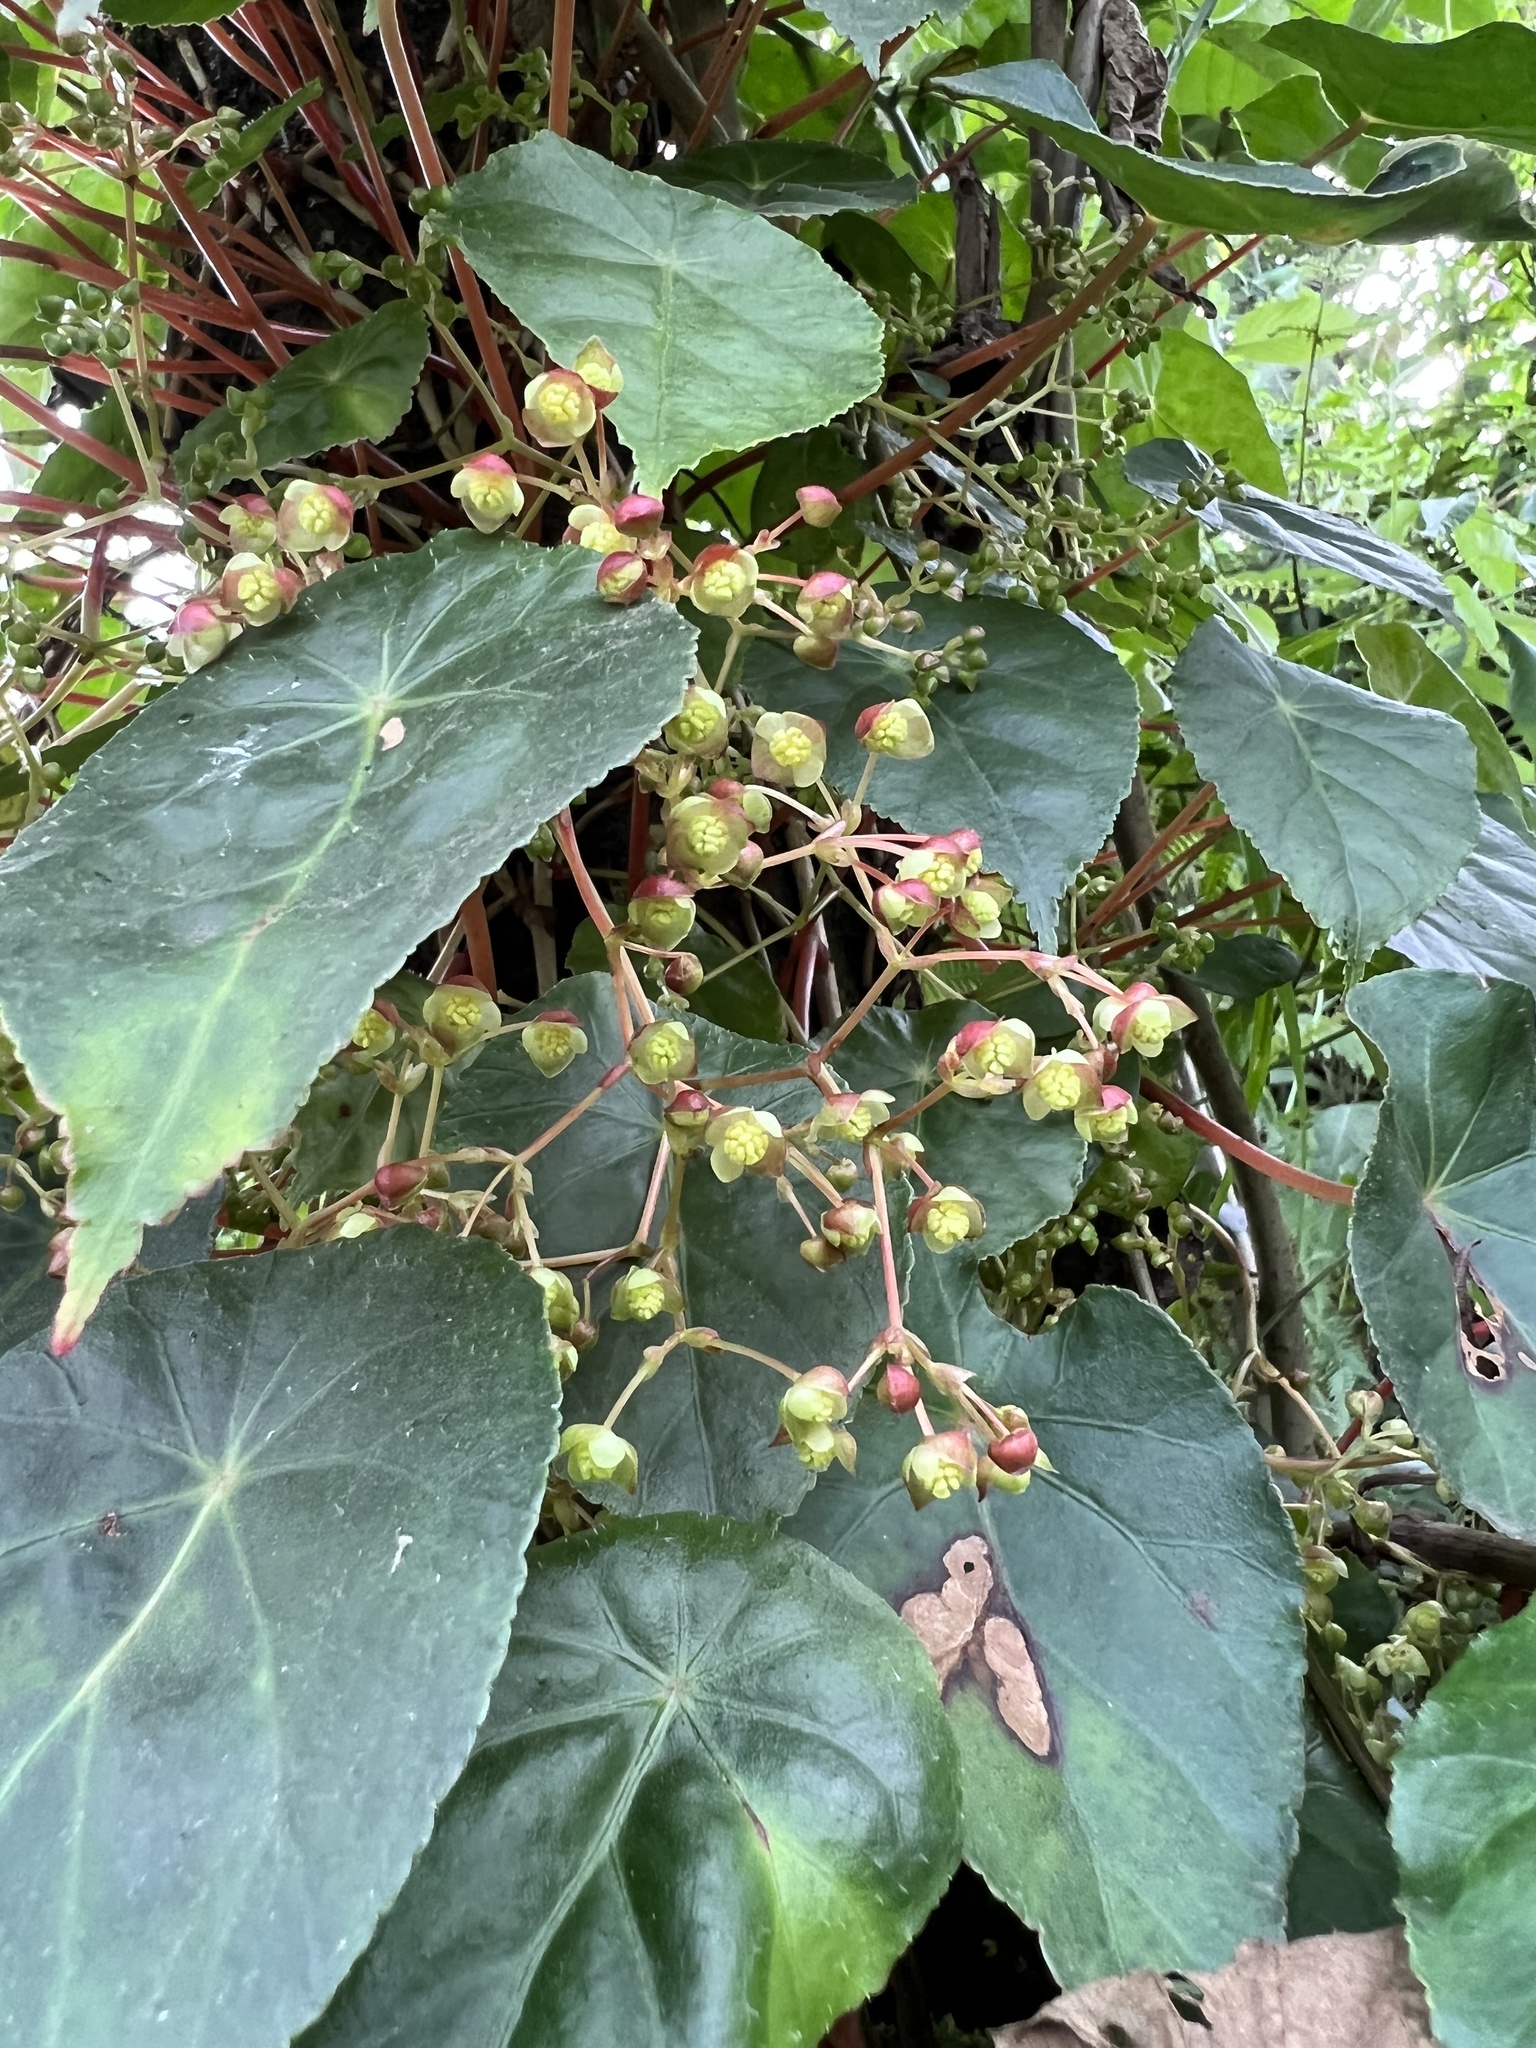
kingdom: Plantae
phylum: Tracheophyta
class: Magnoliopsida
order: Cucurbitales
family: Begoniaceae
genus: Begonia
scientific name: Begonia tropaeolifolia
